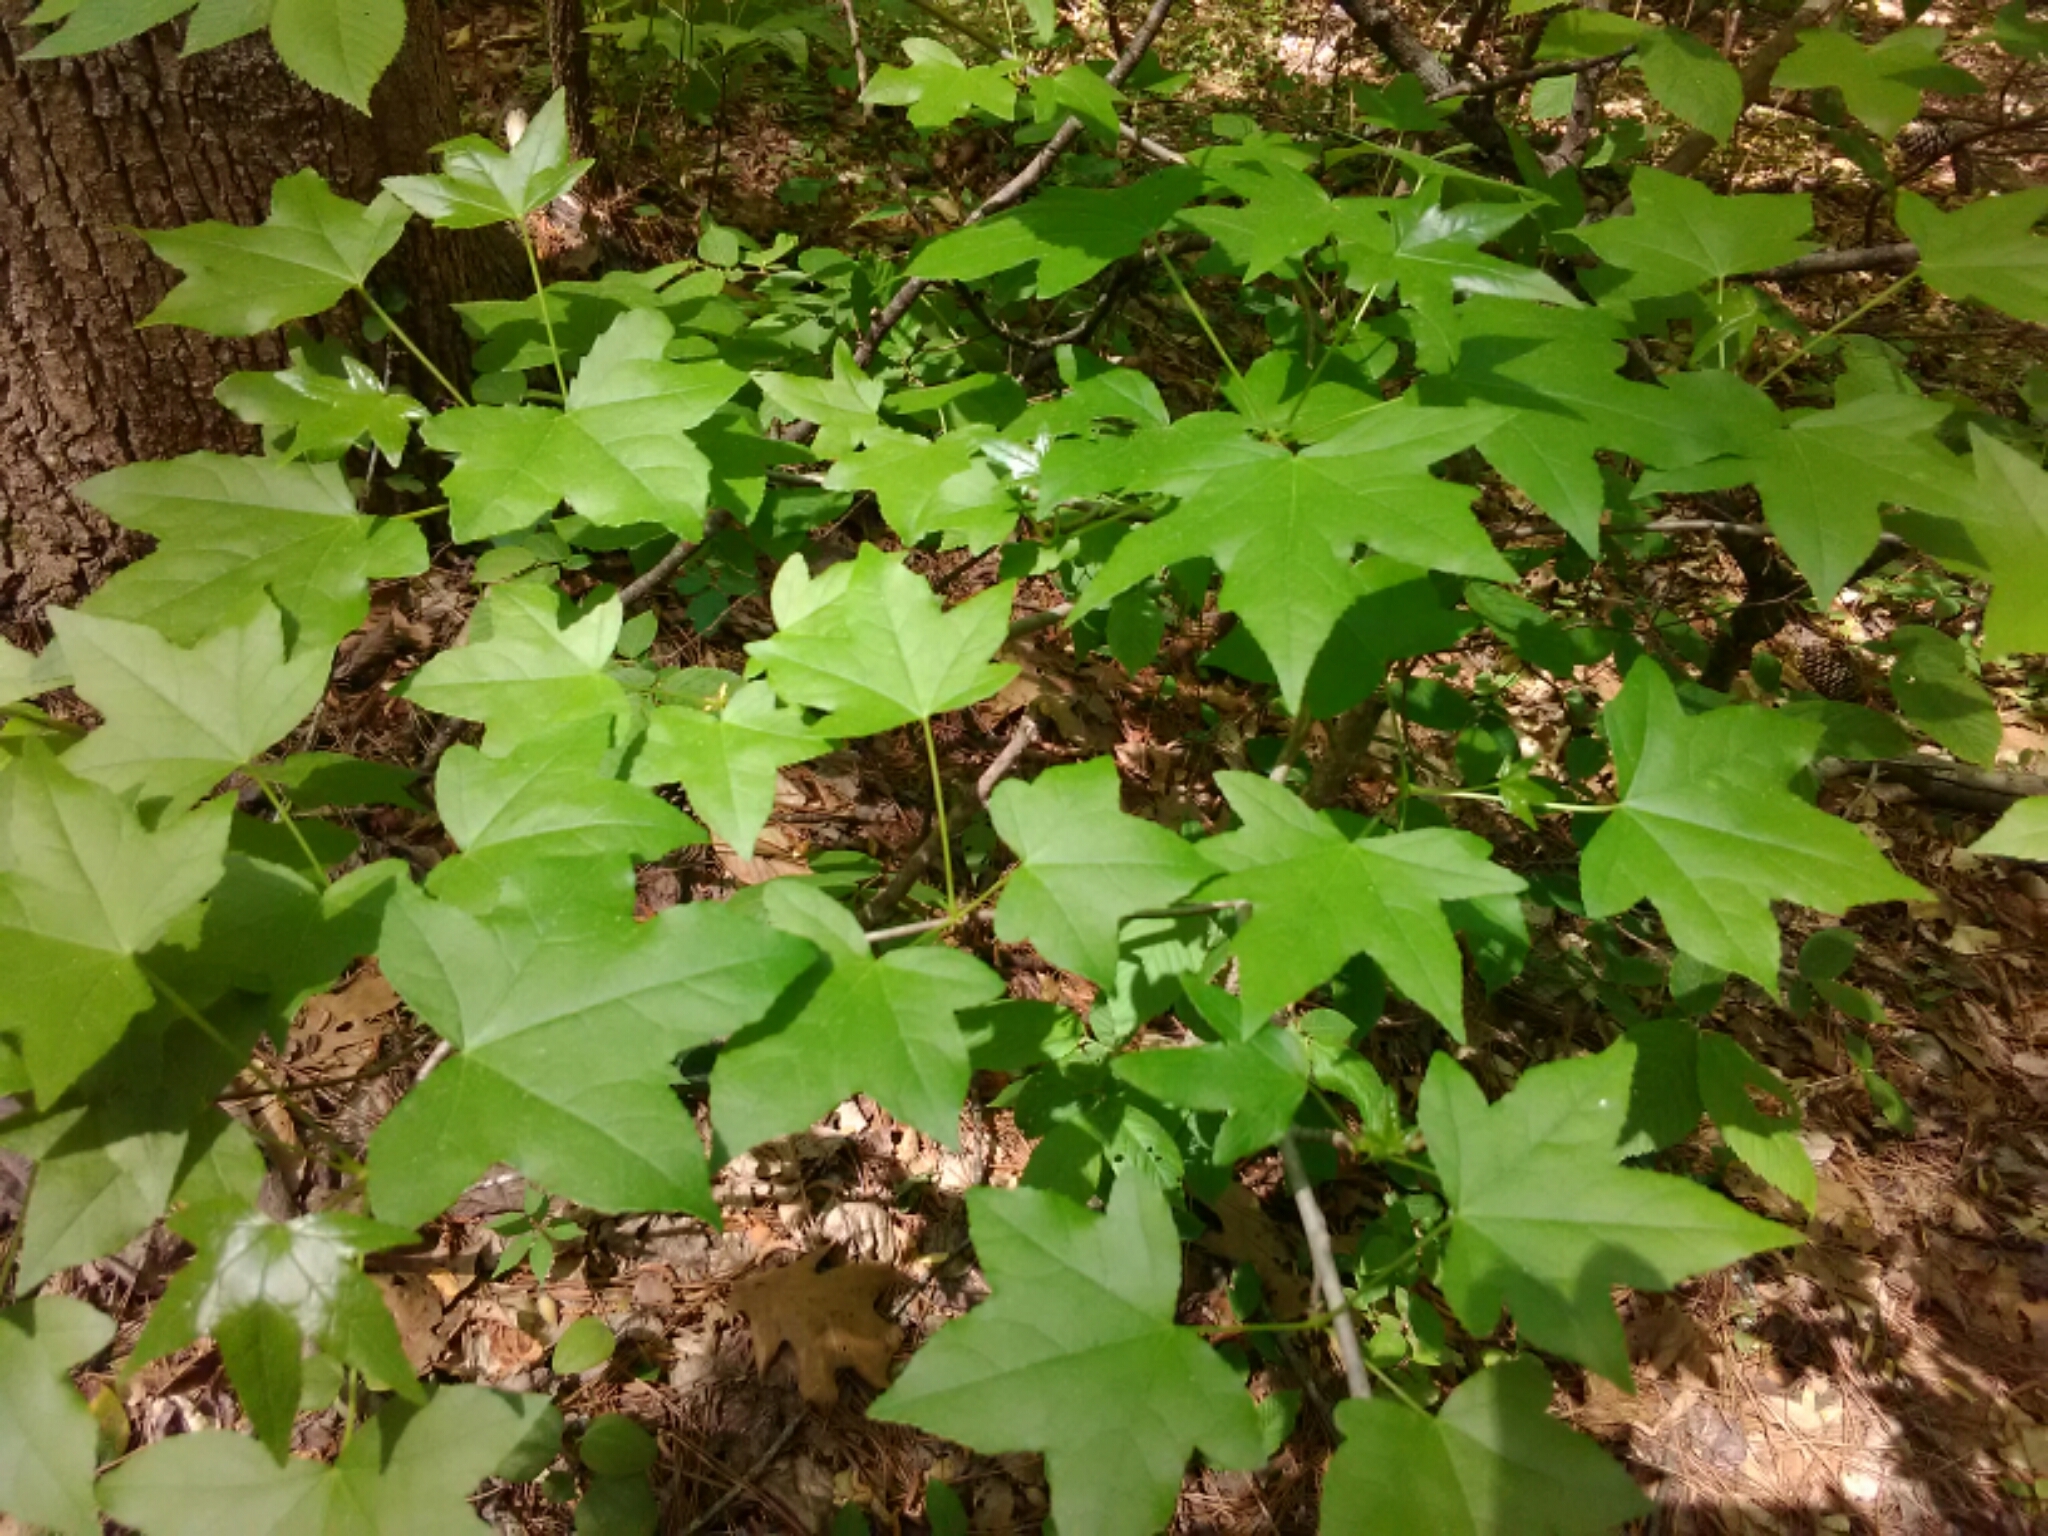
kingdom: Plantae
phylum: Tracheophyta
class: Magnoliopsida
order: Saxifragales
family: Altingiaceae
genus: Liquidambar
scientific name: Liquidambar styraciflua
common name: Sweet gum
